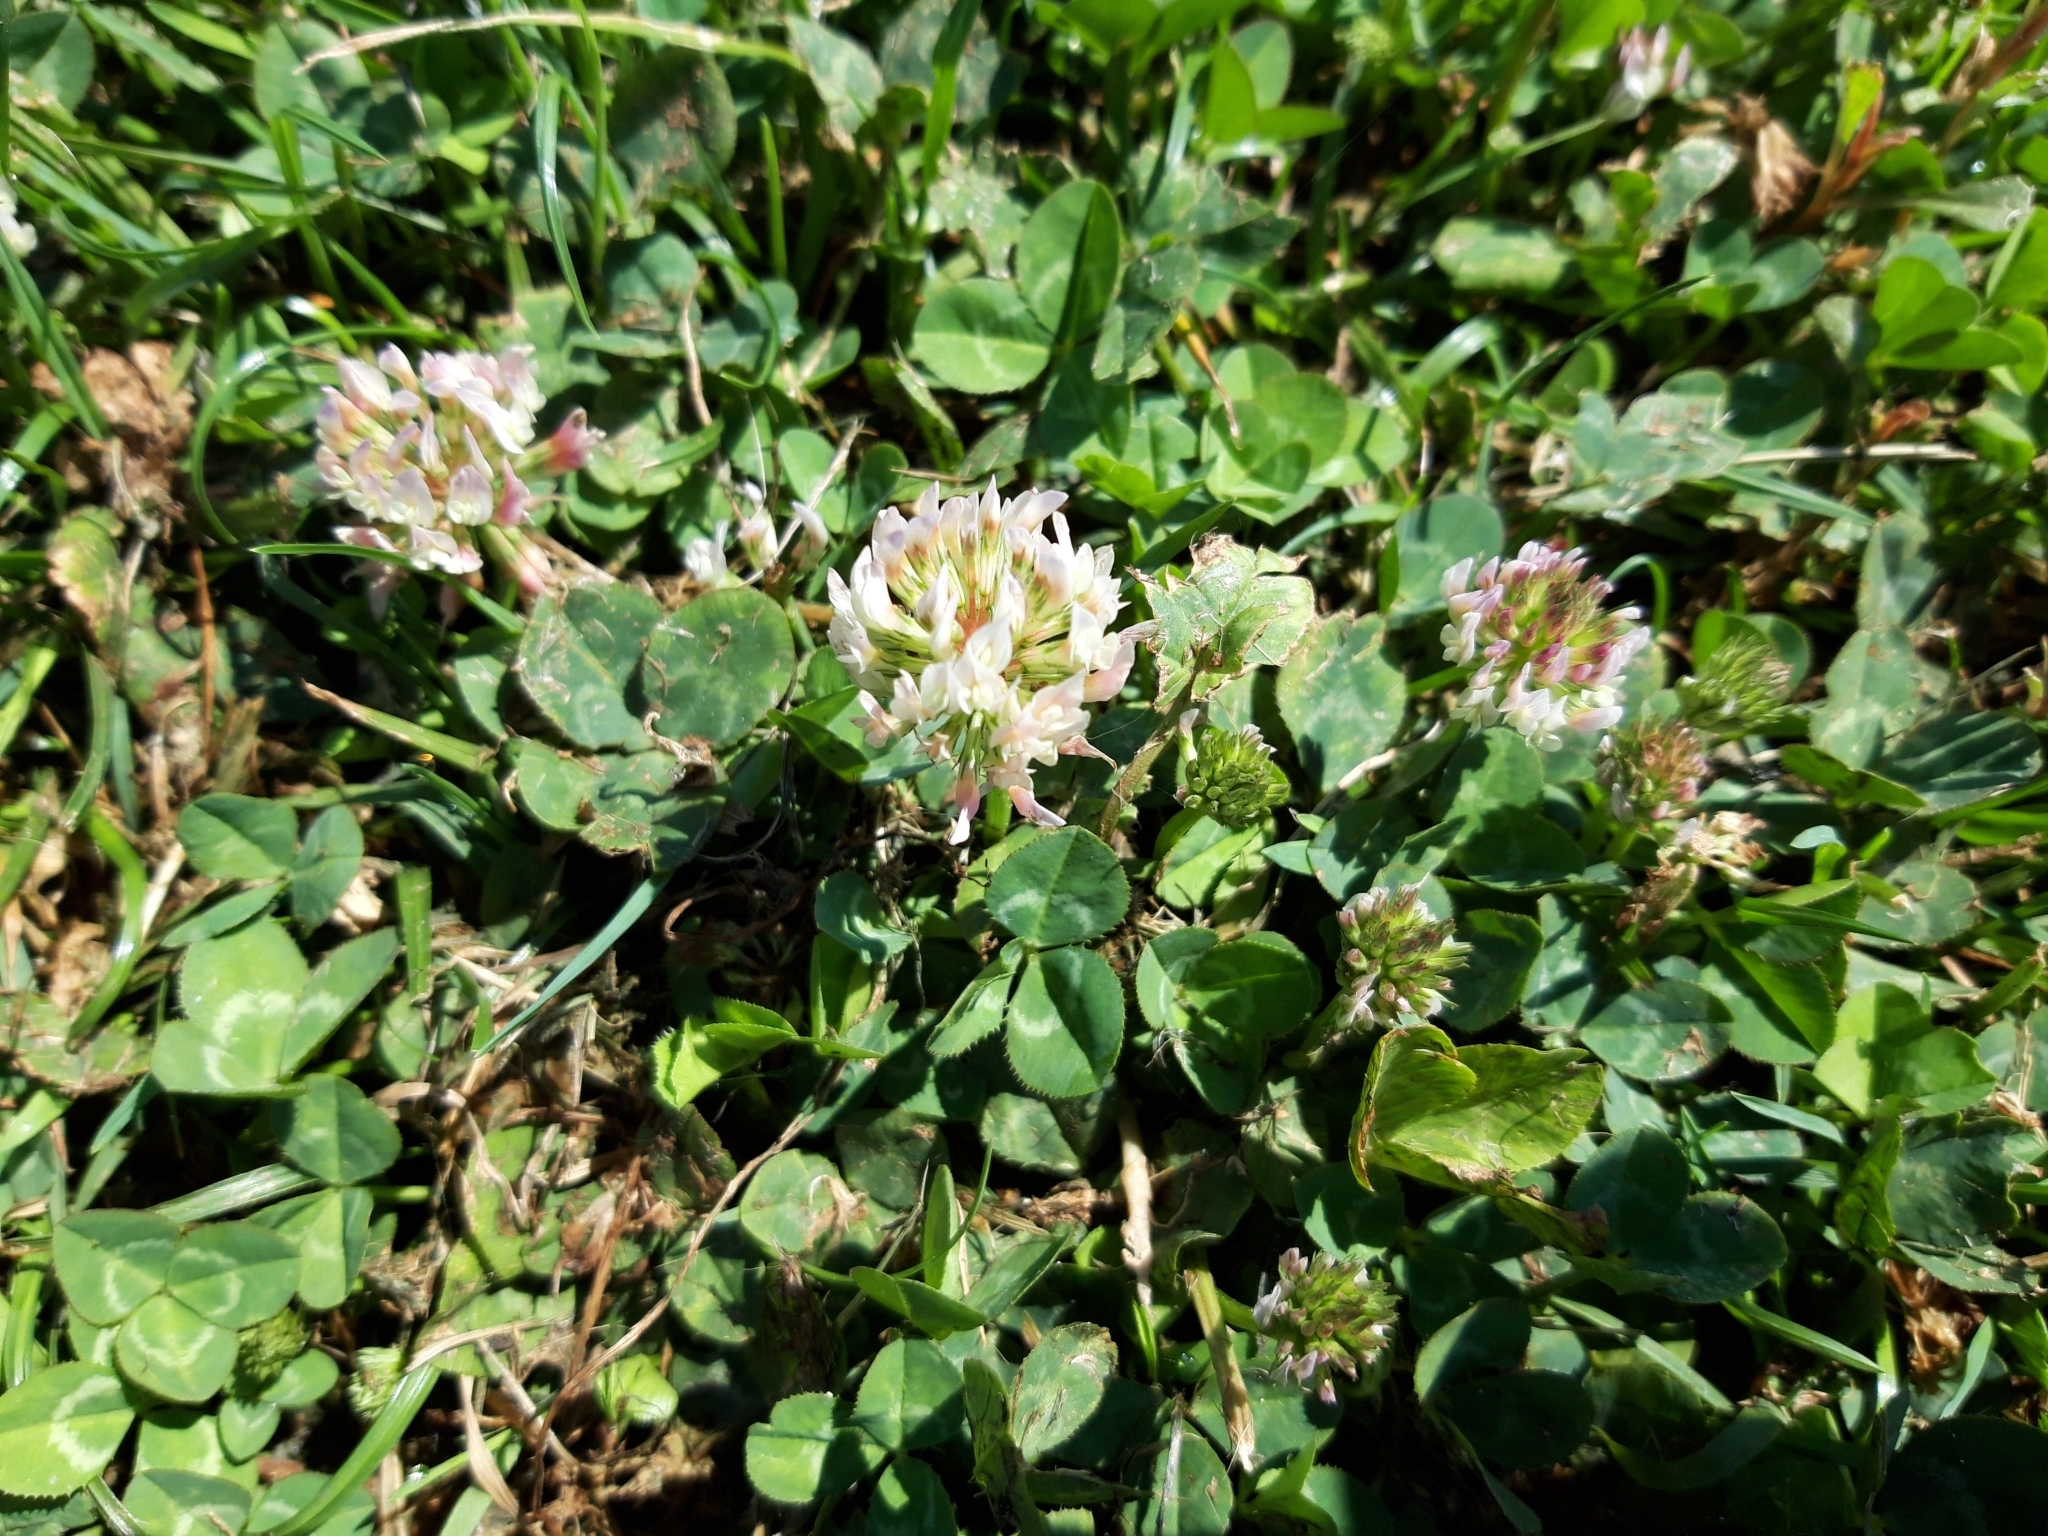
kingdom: Plantae
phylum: Tracheophyta
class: Magnoliopsida
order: Fabales
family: Fabaceae
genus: Trifolium
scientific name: Trifolium repens
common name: White clover
